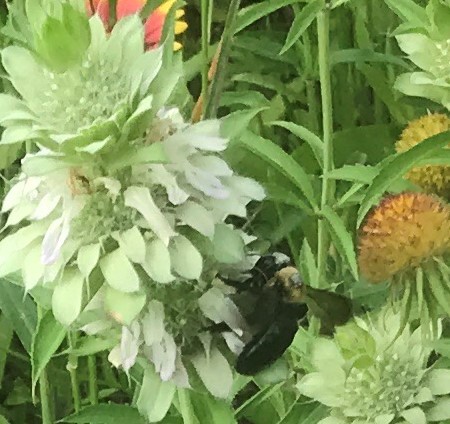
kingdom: Animalia
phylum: Arthropoda
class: Insecta
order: Hymenoptera
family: Apidae
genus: Xylocopa
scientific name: Xylocopa virginica
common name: Carpenter bee
